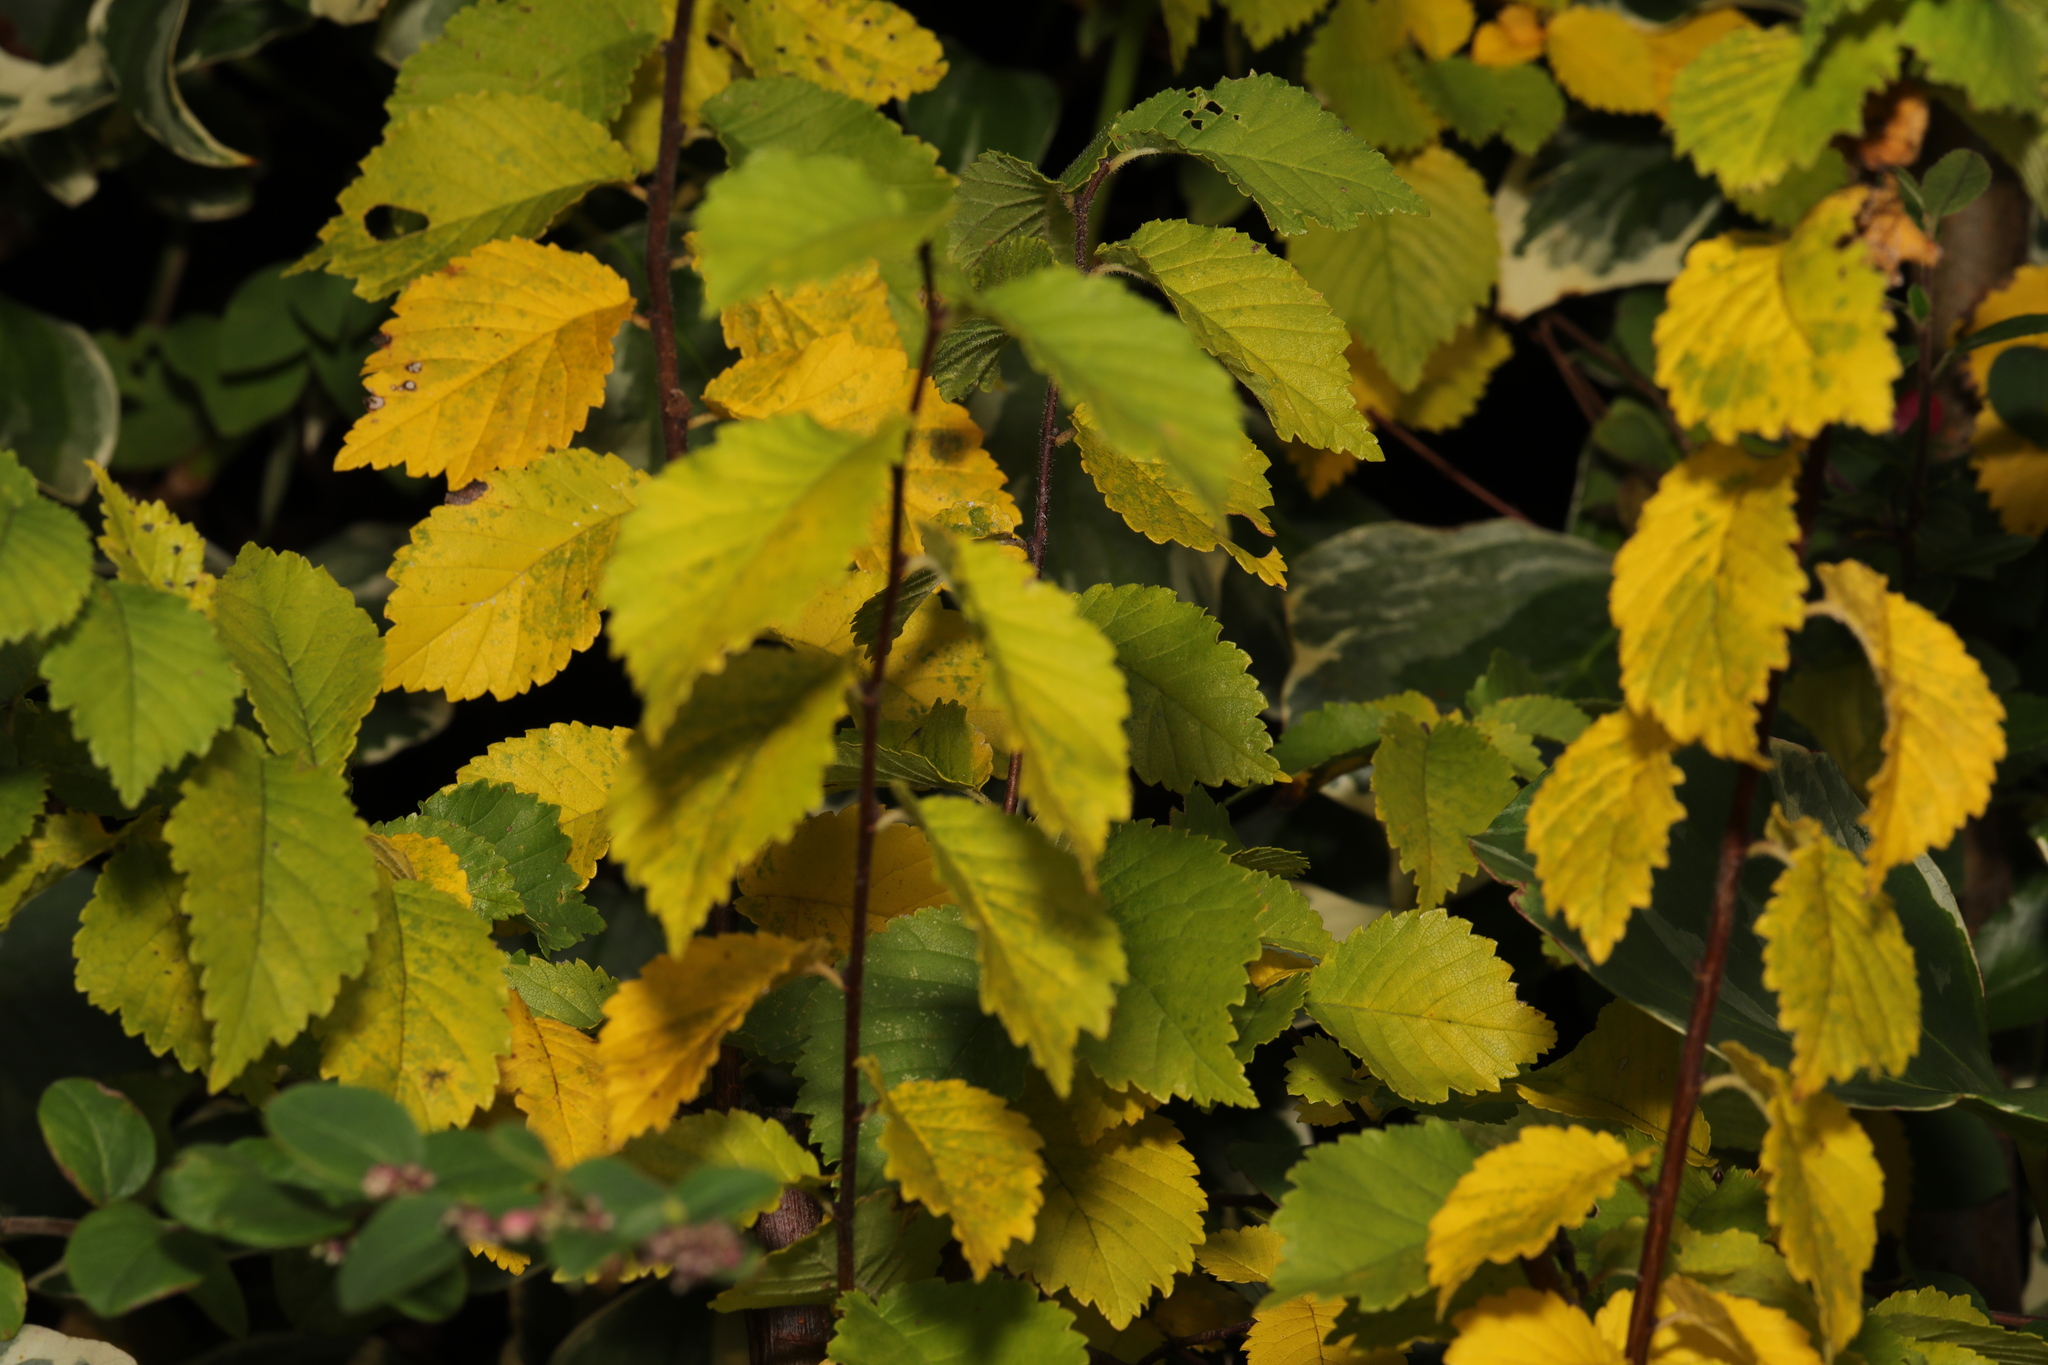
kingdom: Plantae
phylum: Tracheophyta
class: Magnoliopsida
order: Rosales
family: Ulmaceae
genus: Ulmus
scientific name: Ulmus minor
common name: Small-leaved elm
